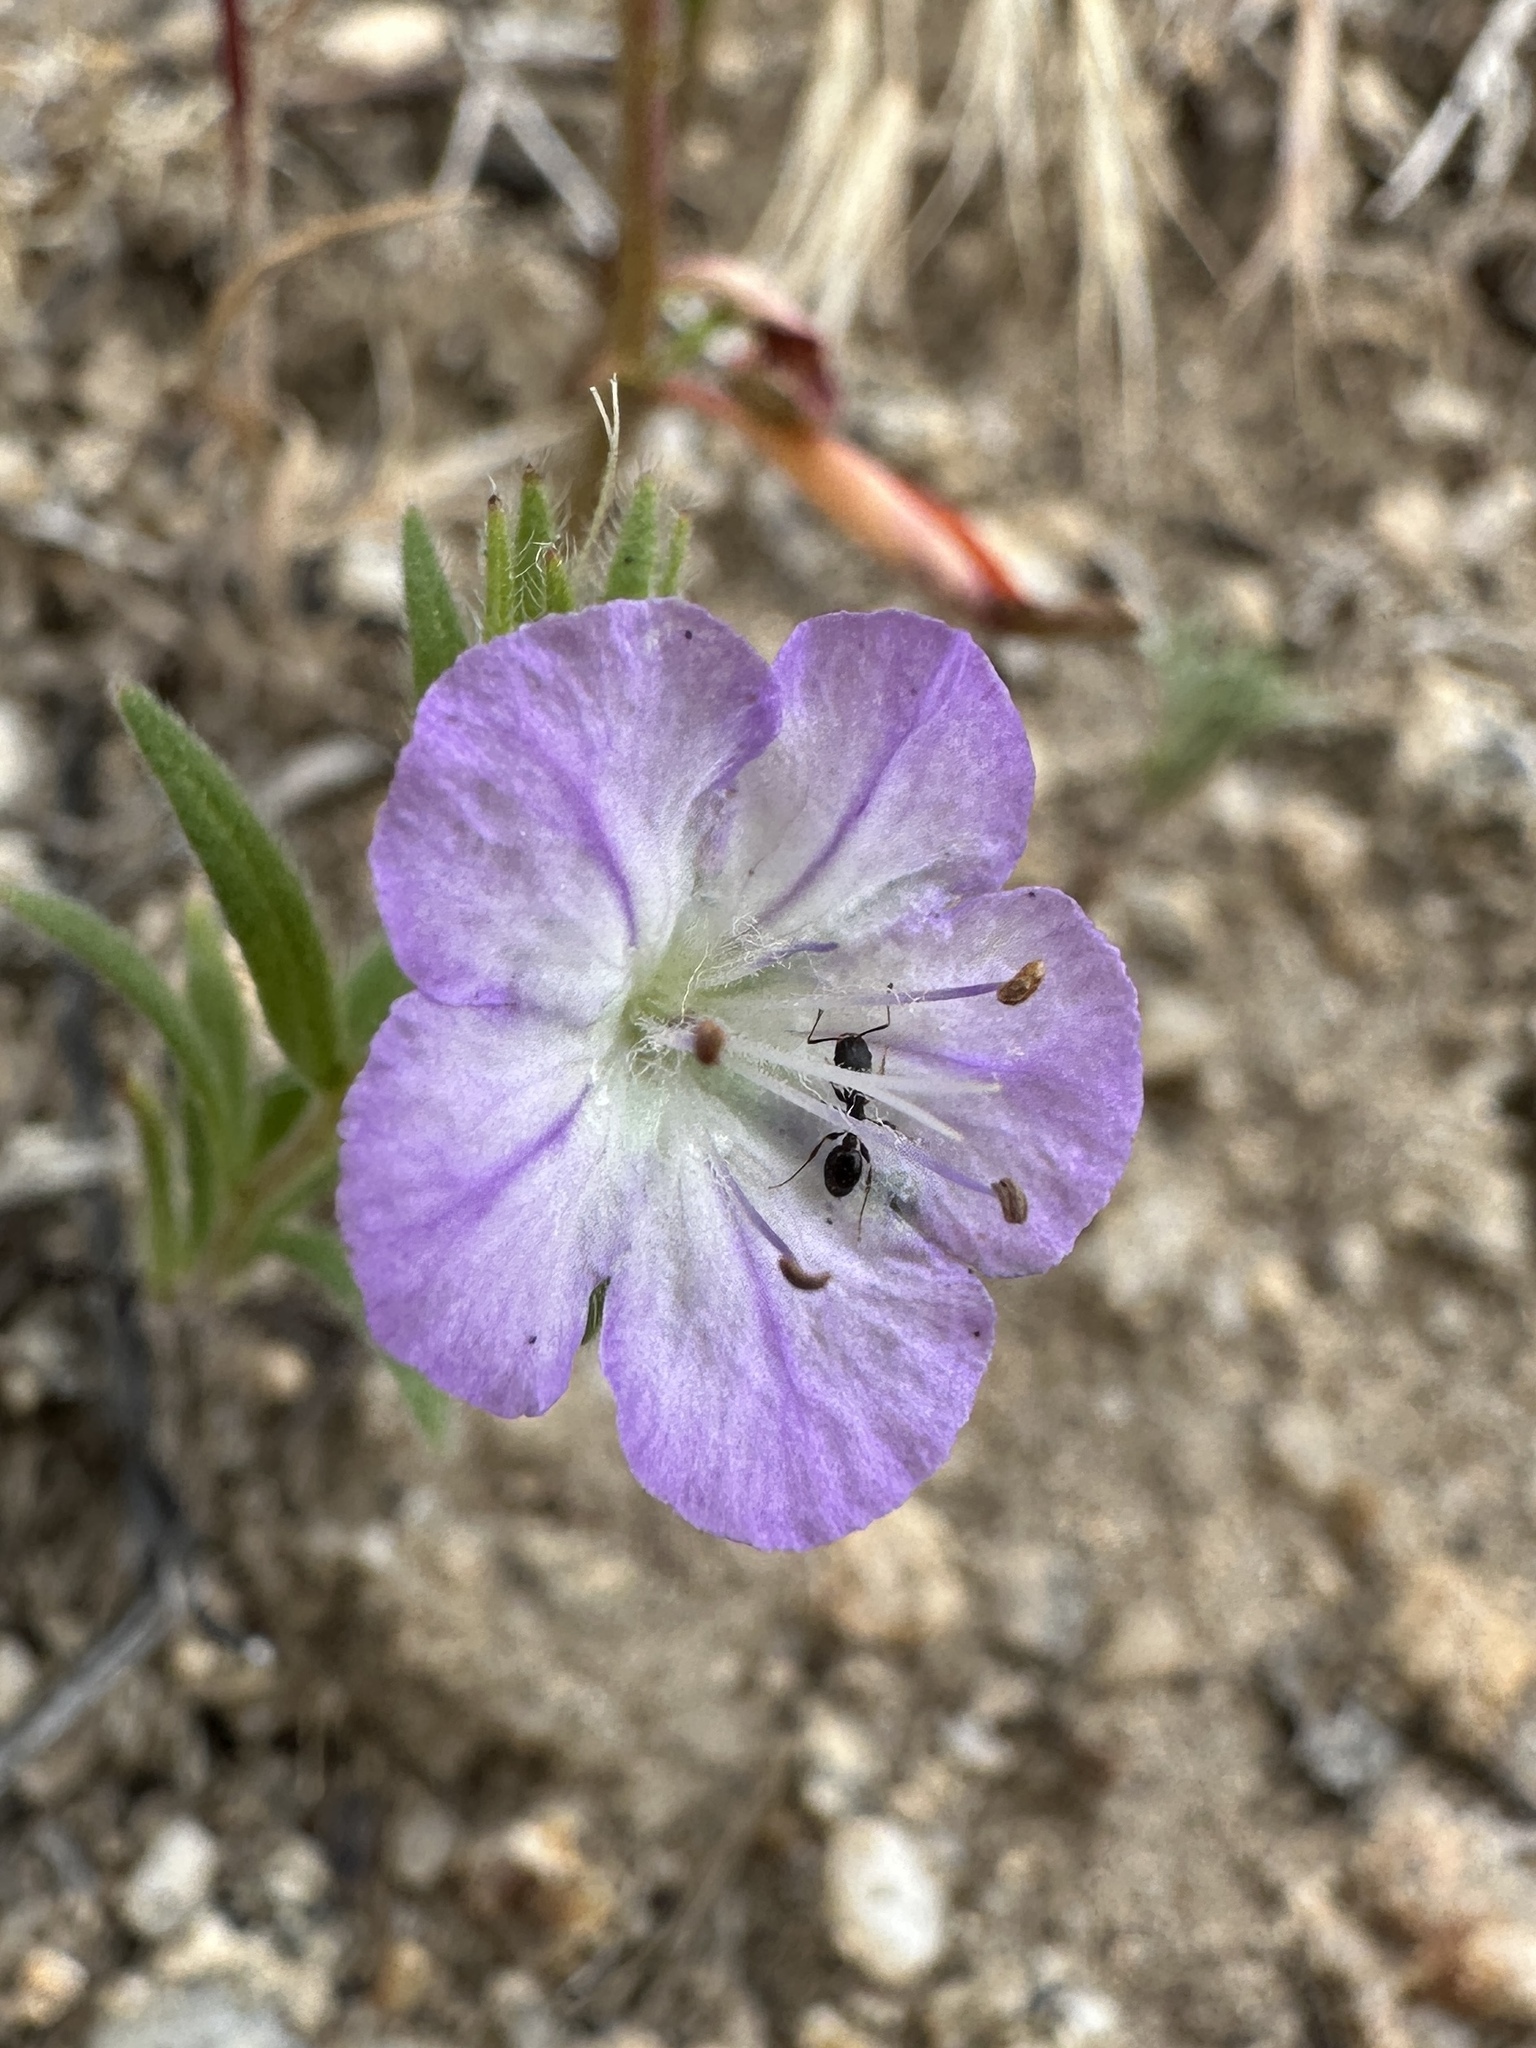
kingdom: Plantae
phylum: Tracheophyta
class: Magnoliopsida
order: Boraginales
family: Hydrophyllaceae
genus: Phacelia
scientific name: Phacelia linearis
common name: Linear-leaved phacelia
